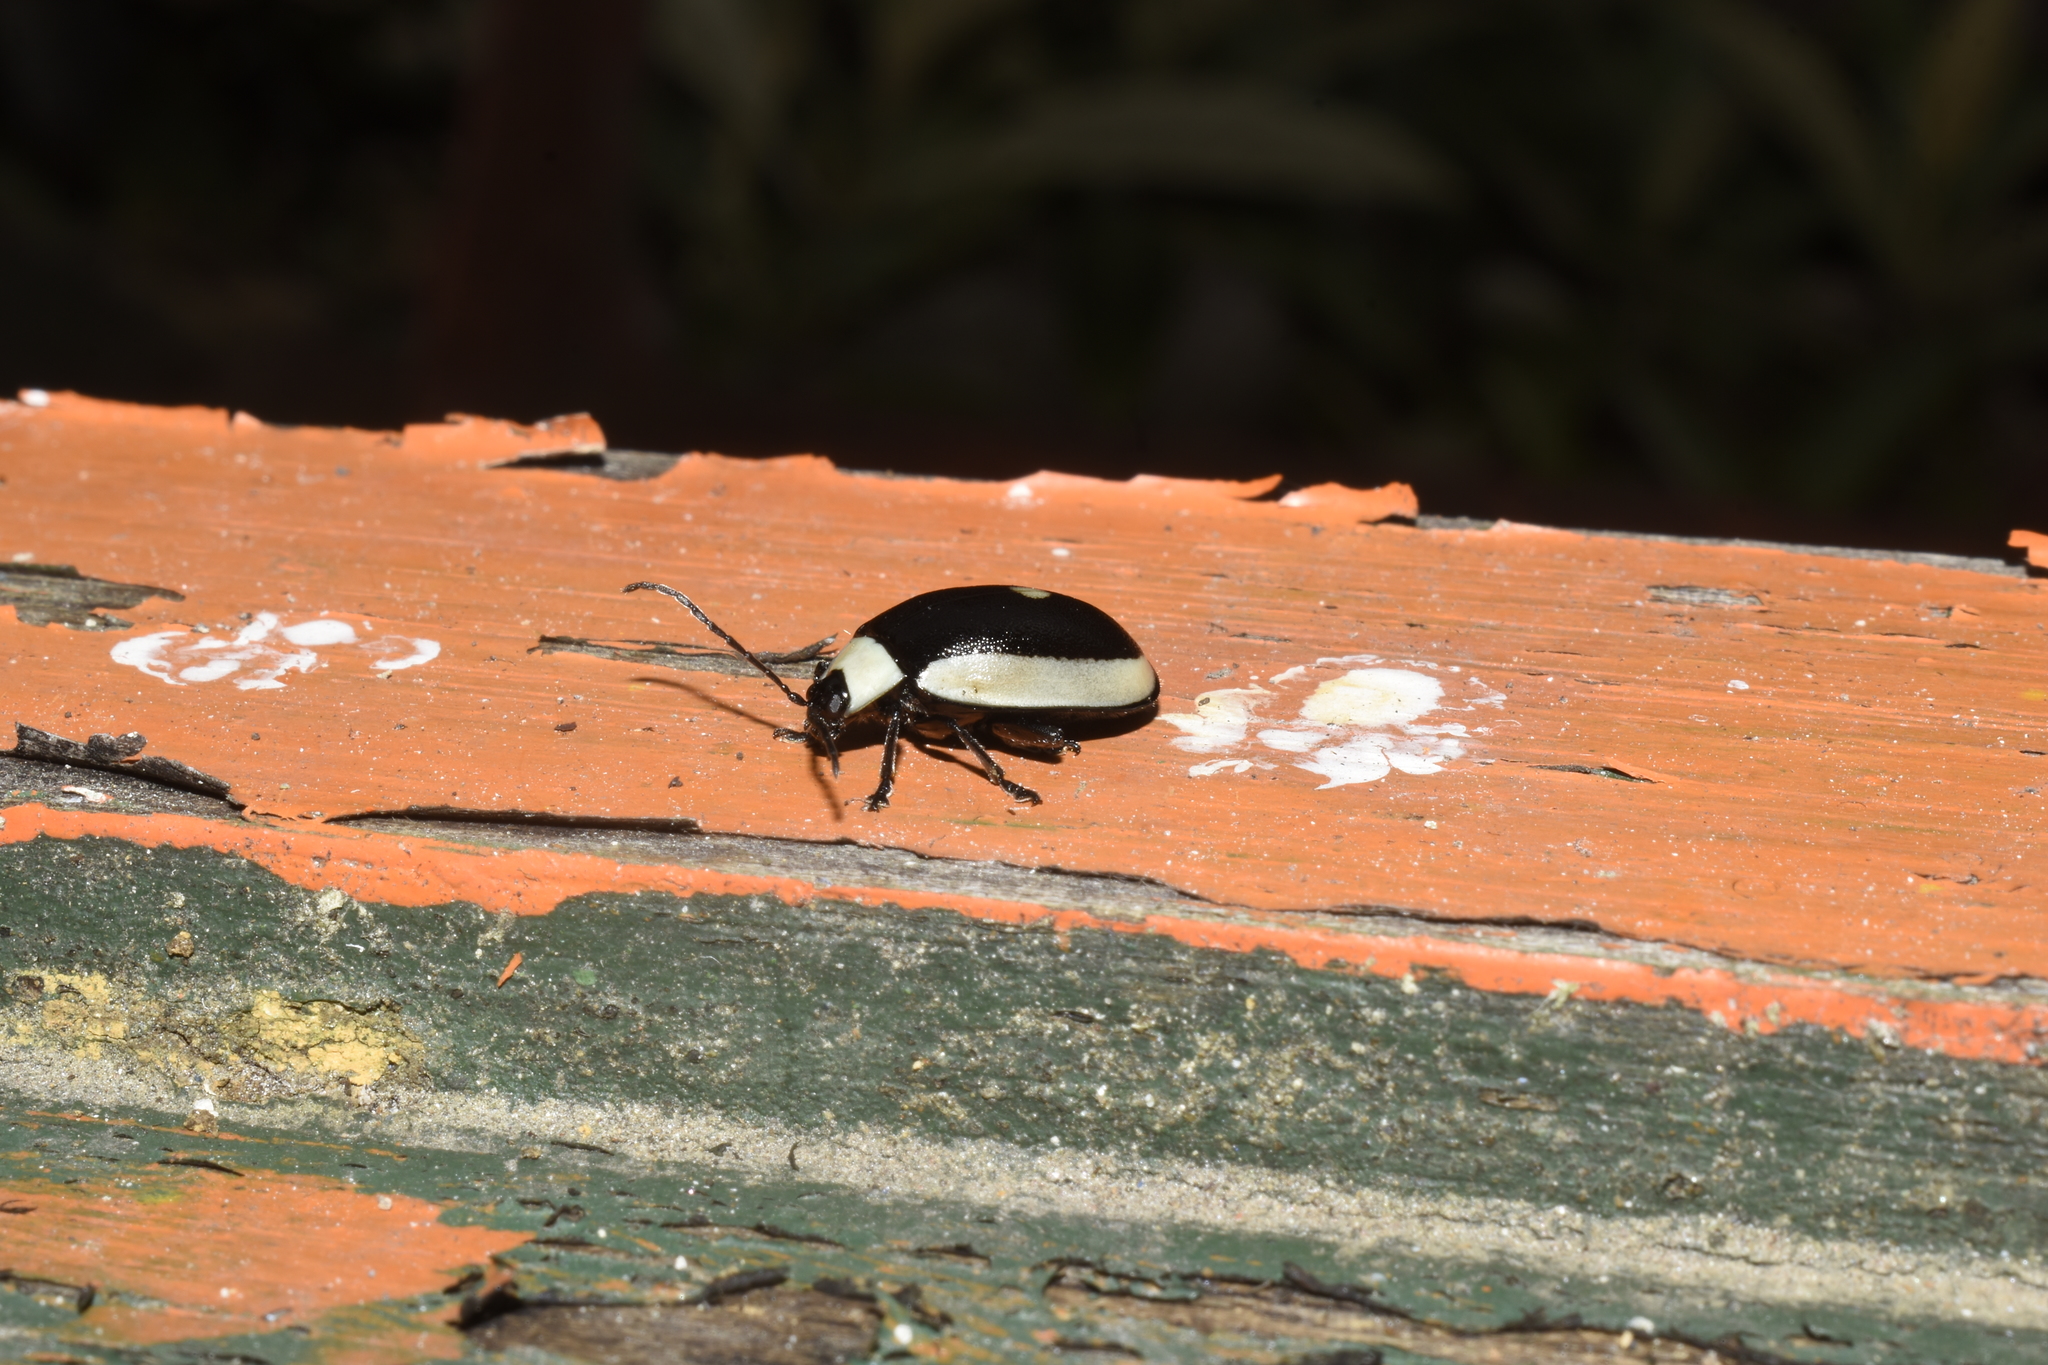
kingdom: Animalia
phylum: Arthropoda
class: Insecta
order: Coleoptera
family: Chrysomelidae
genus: Aspicela
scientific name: Aspicela
